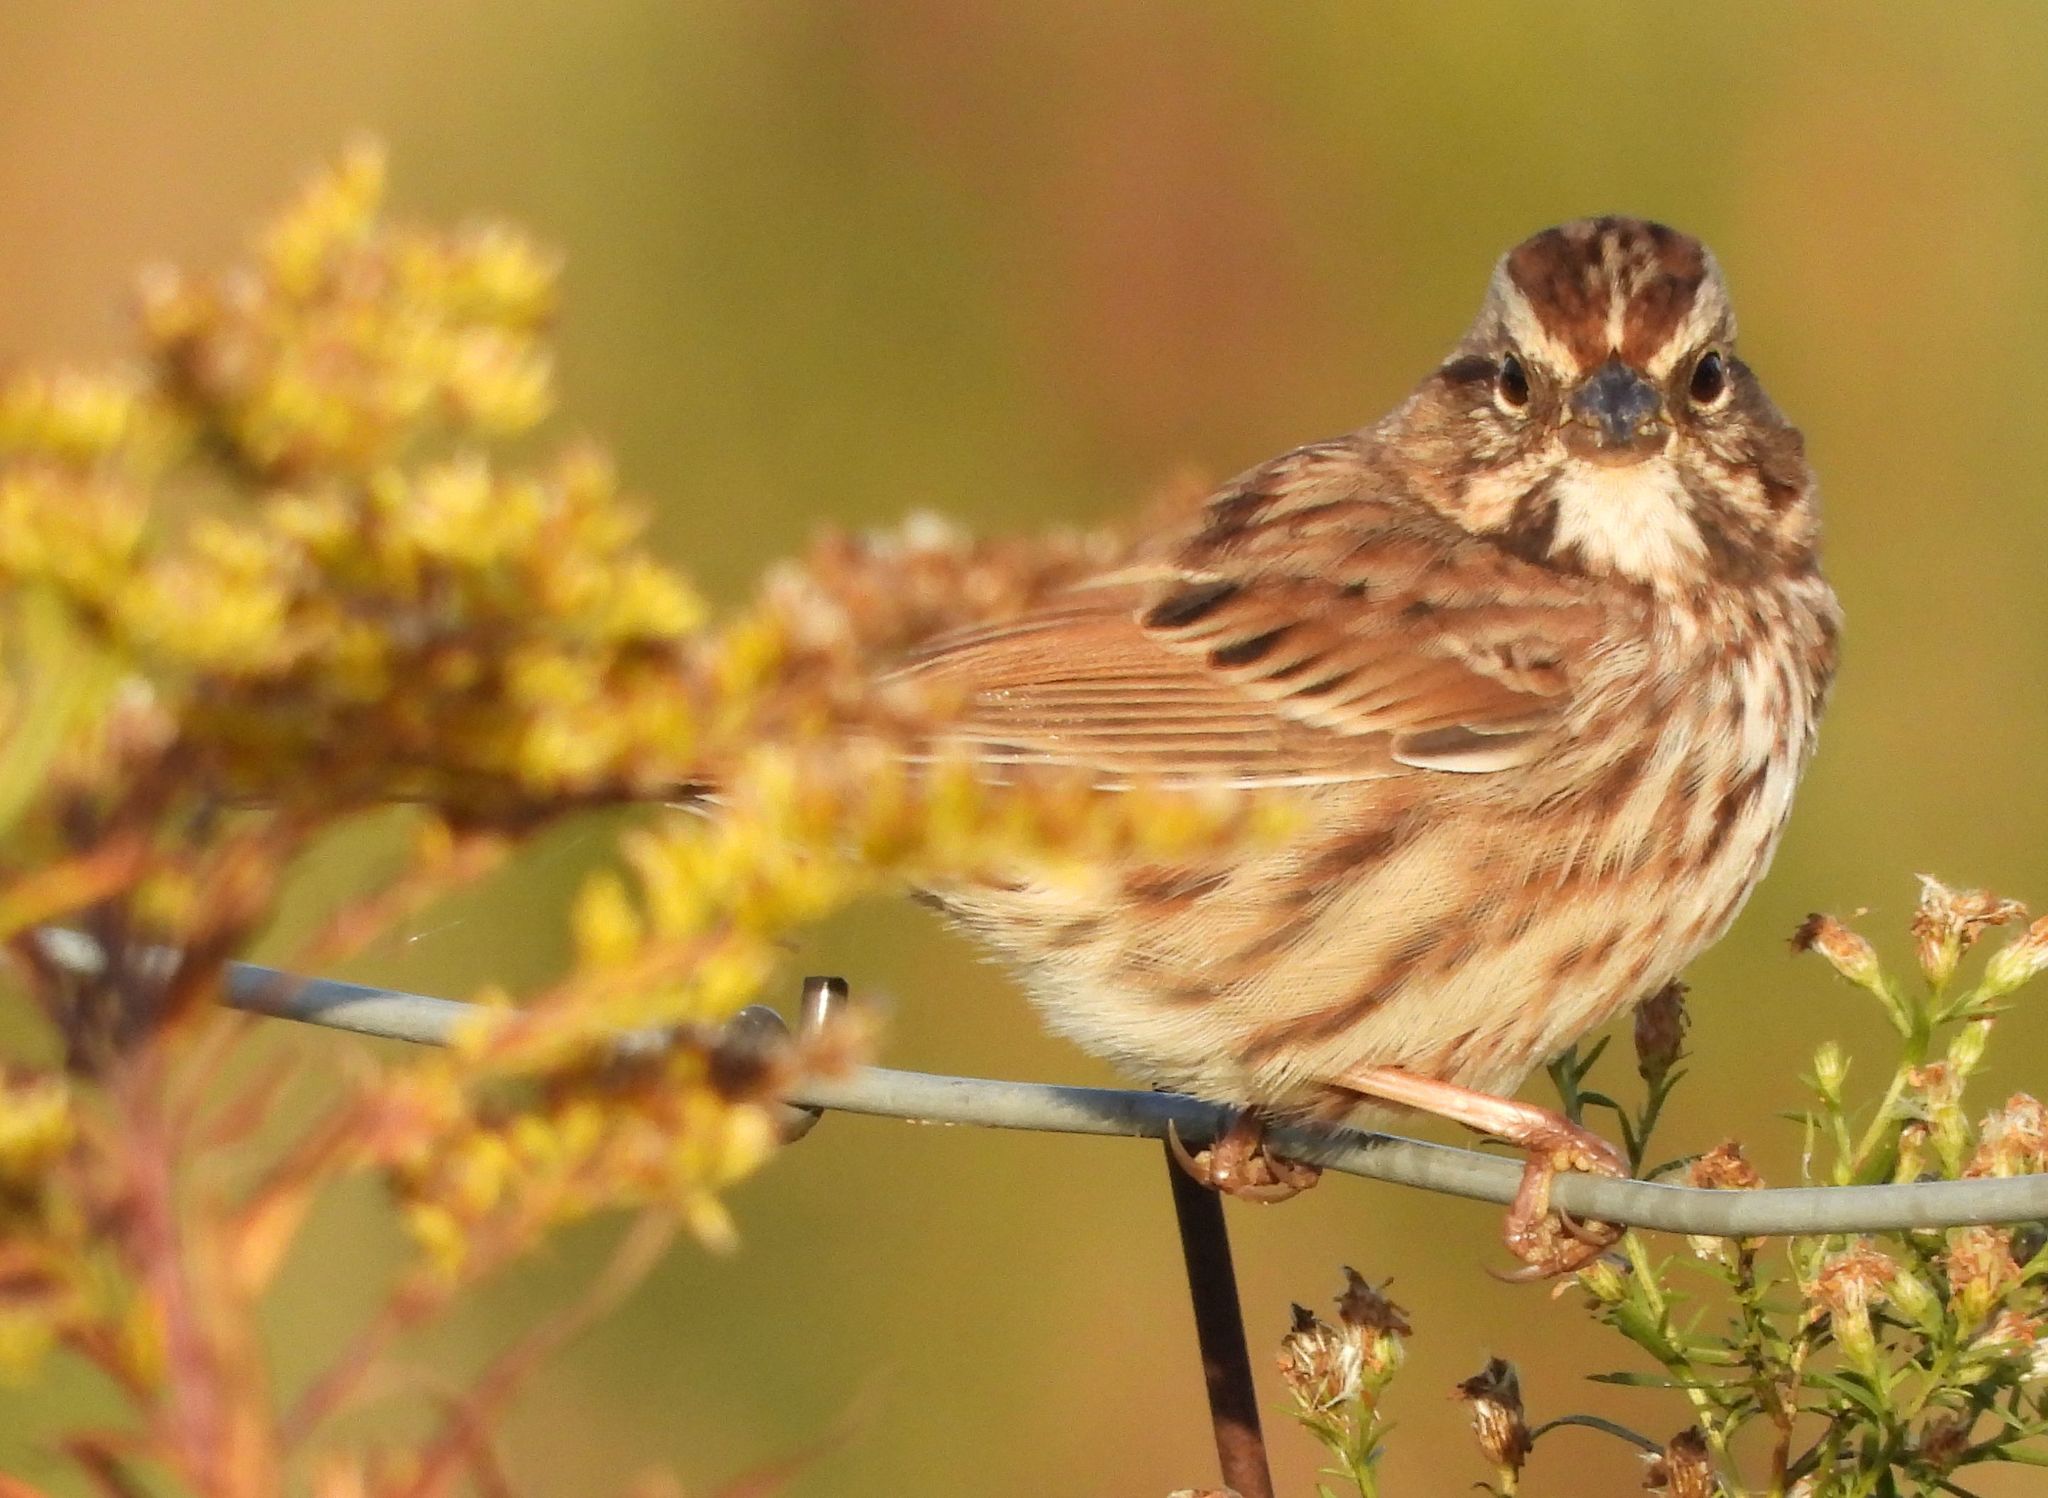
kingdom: Animalia
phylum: Chordata
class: Aves
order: Passeriformes
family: Passerellidae
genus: Melospiza
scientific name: Melospiza melodia
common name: Song sparrow
